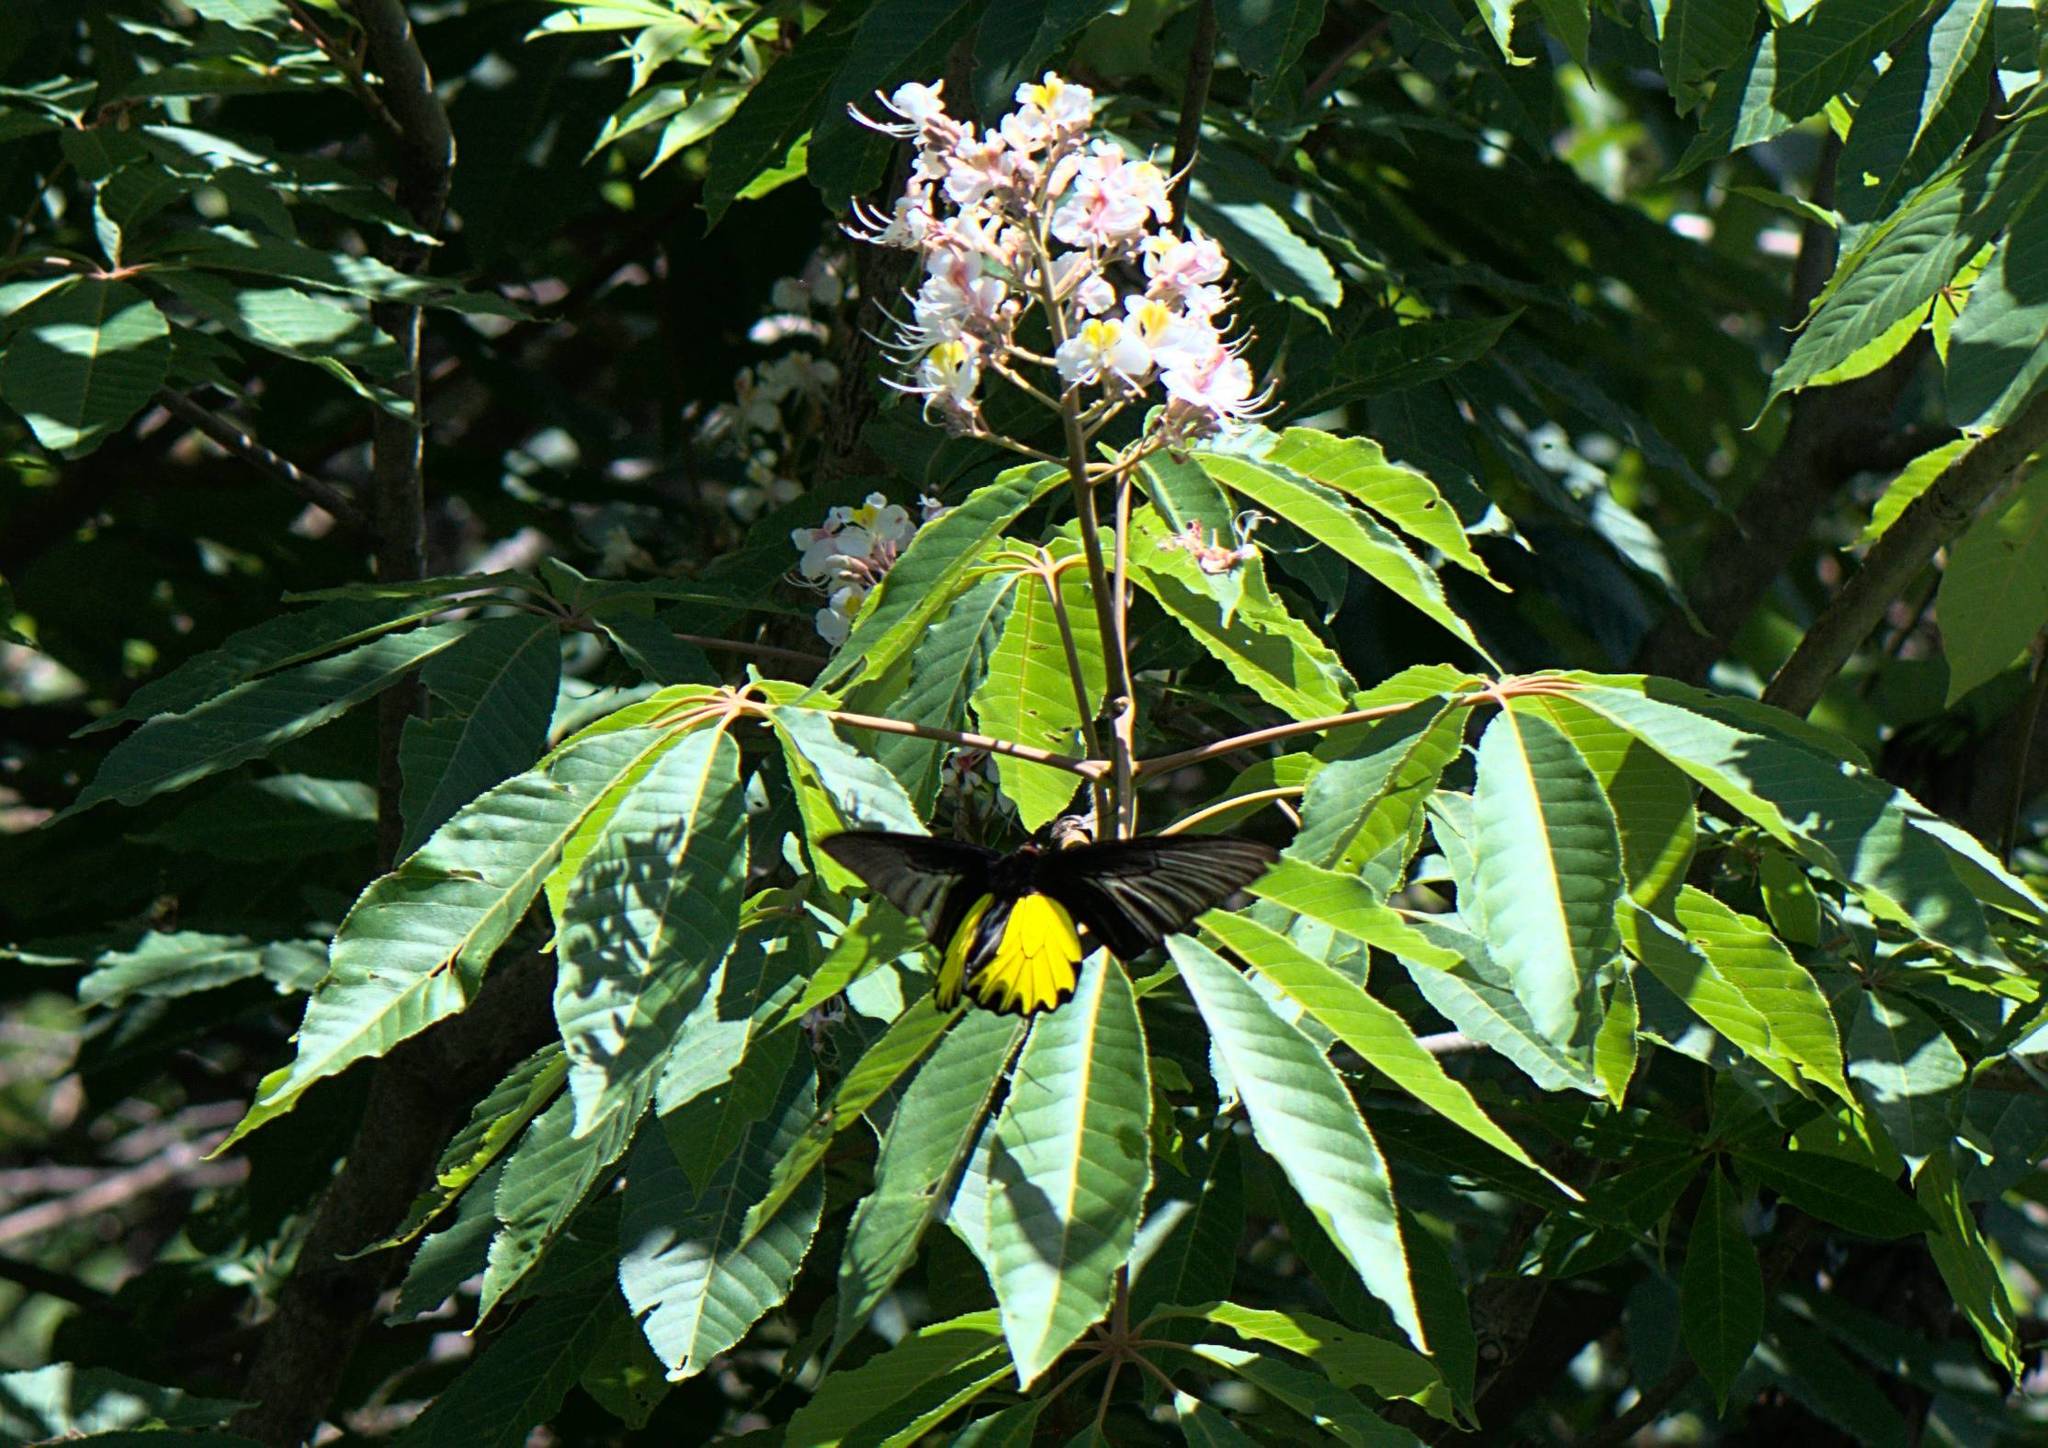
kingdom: Animalia
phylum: Arthropoda
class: Insecta
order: Lepidoptera
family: Papilionidae
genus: Troides
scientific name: Troides aeacus
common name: Golden birdwing
